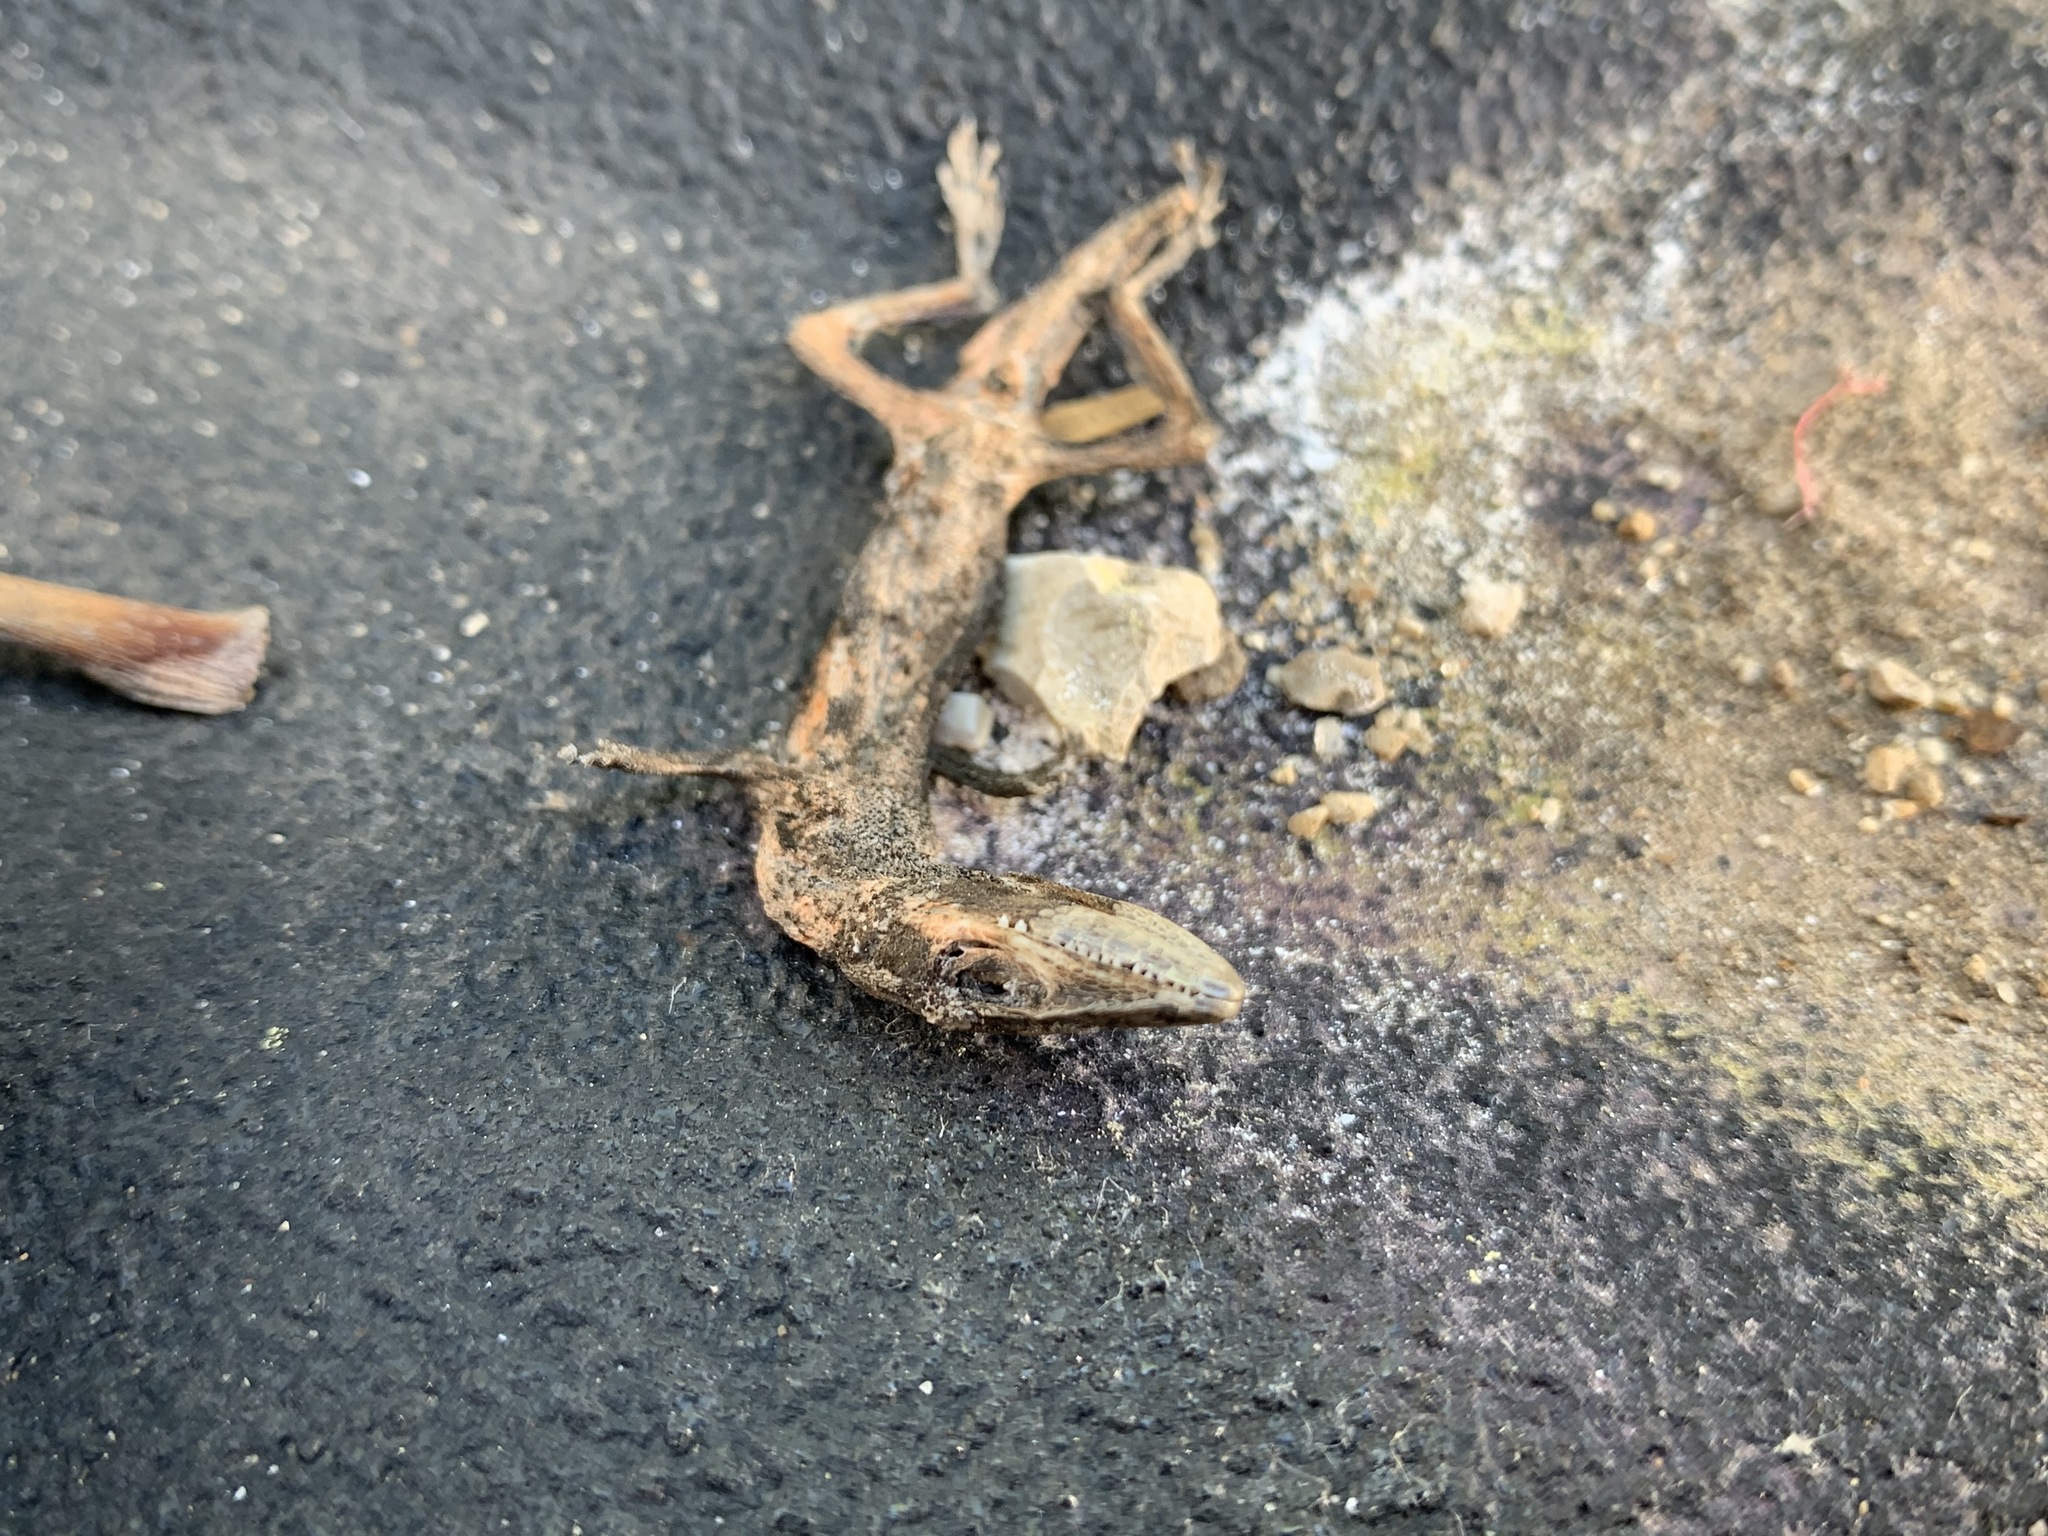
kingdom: Animalia
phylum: Chordata
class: Squamata
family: Dactyloidae
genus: Anolis
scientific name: Anolis carolinensis
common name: Green anole
